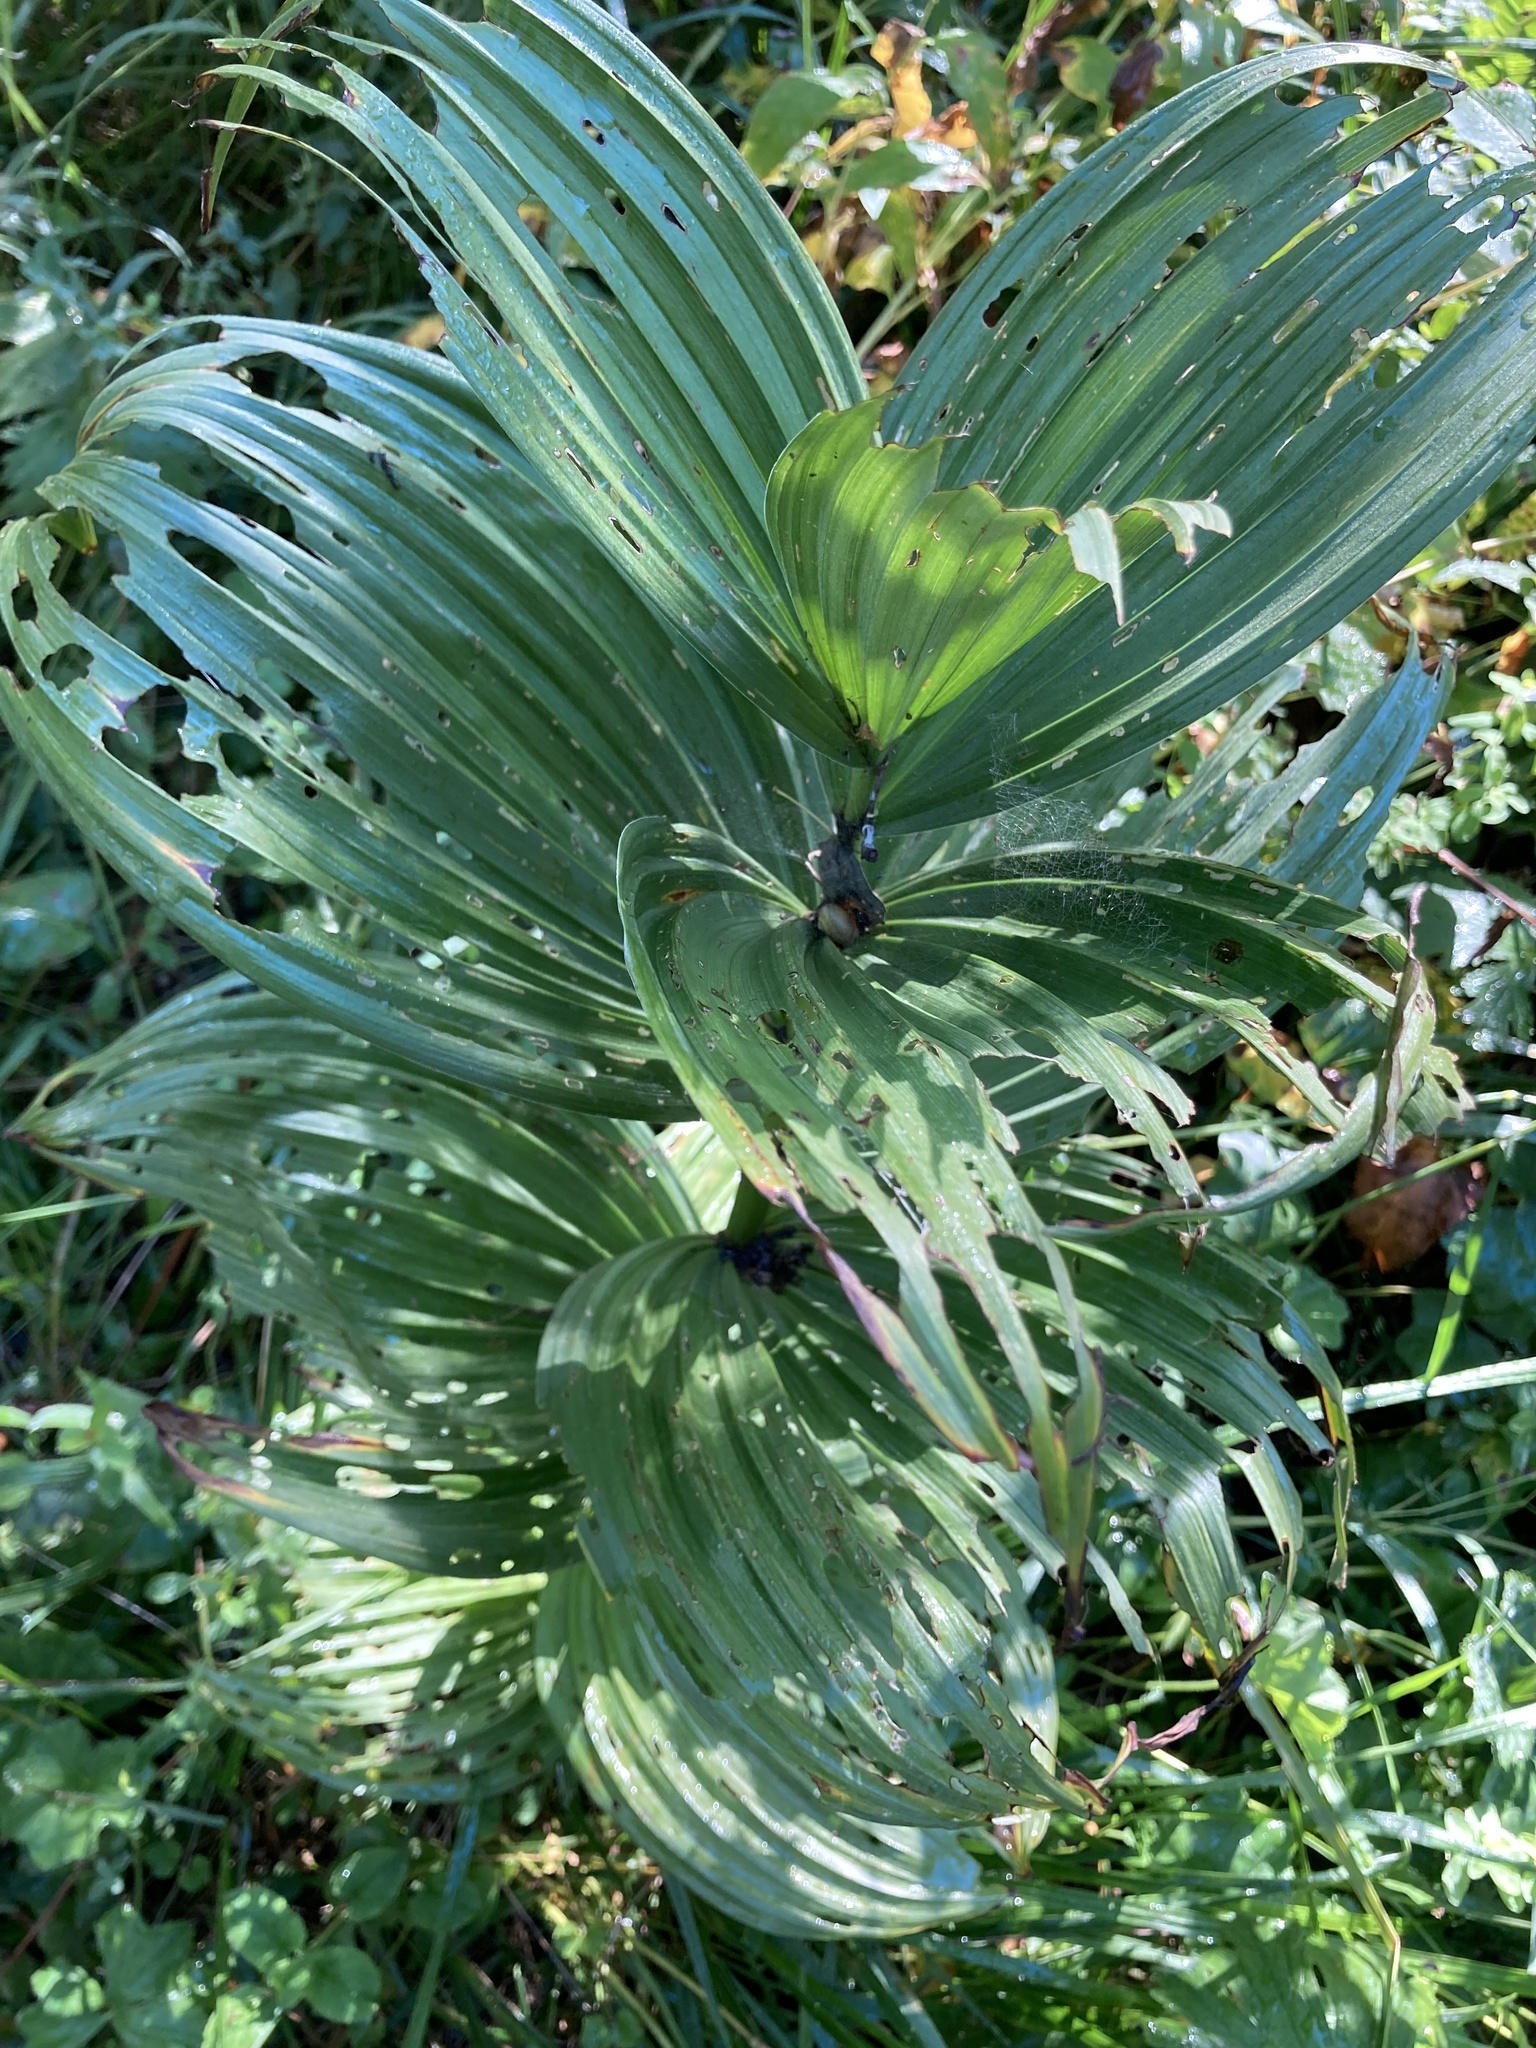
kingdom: Plantae
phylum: Tracheophyta
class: Liliopsida
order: Liliales
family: Melanthiaceae
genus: Veratrum
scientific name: Veratrum lobelianum
